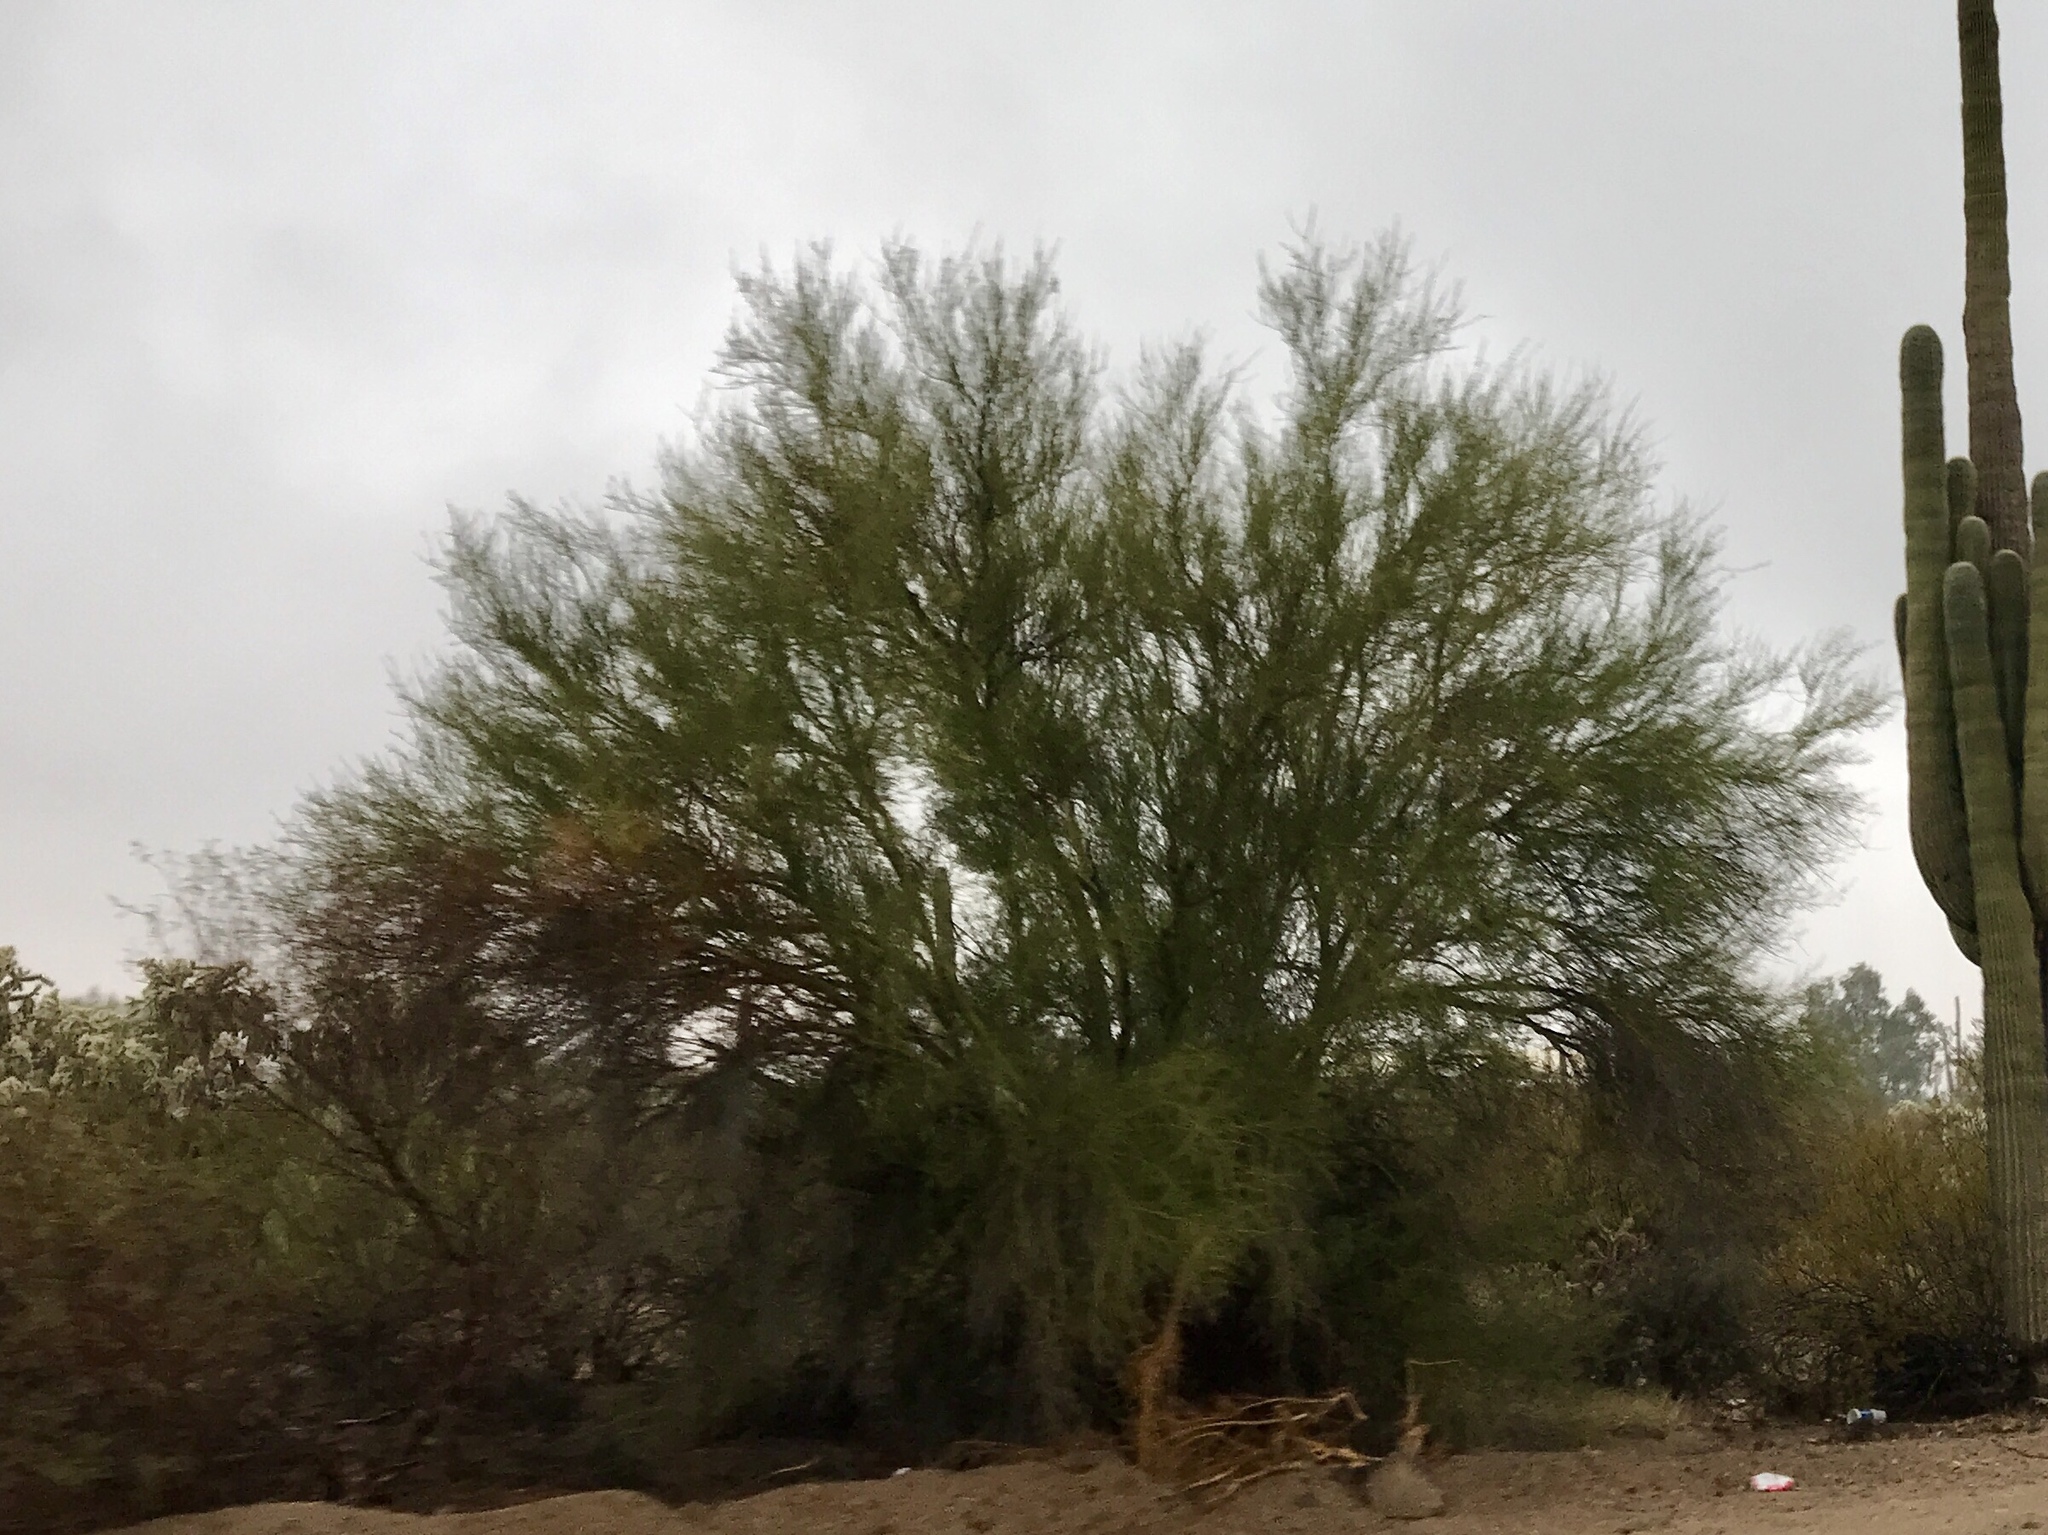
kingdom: Plantae
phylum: Tracheophyta
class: Magnoliopsida
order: Fabales
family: Fabaceae
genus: Parkinsonia
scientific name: Parkinsonia microphylla
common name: Yellow paloverde
